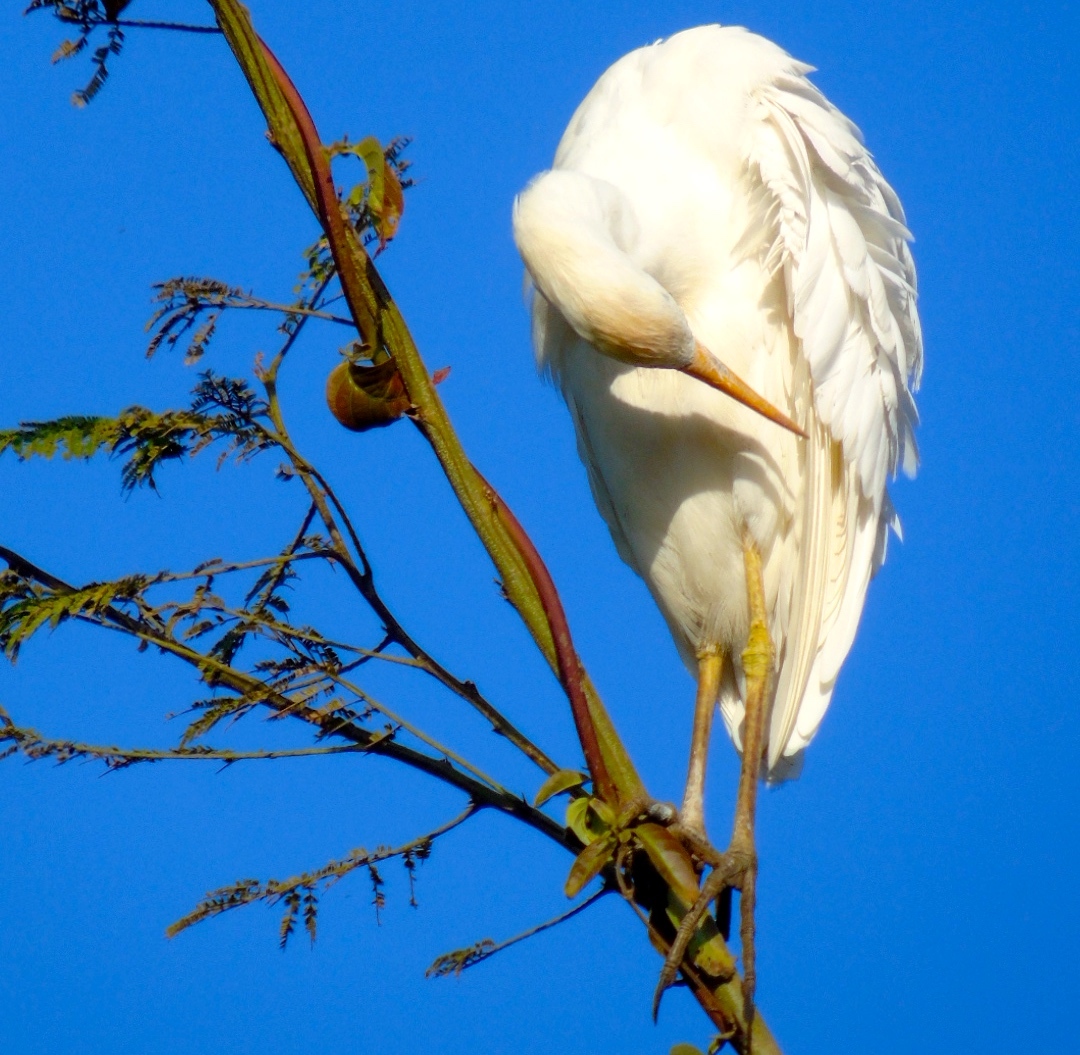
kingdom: Animalia
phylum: Chordata
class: Aves
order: Pelecaniformes
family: Ardeidae
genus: Bubulcus
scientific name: Bubulcus ibis
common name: Cattle egret
